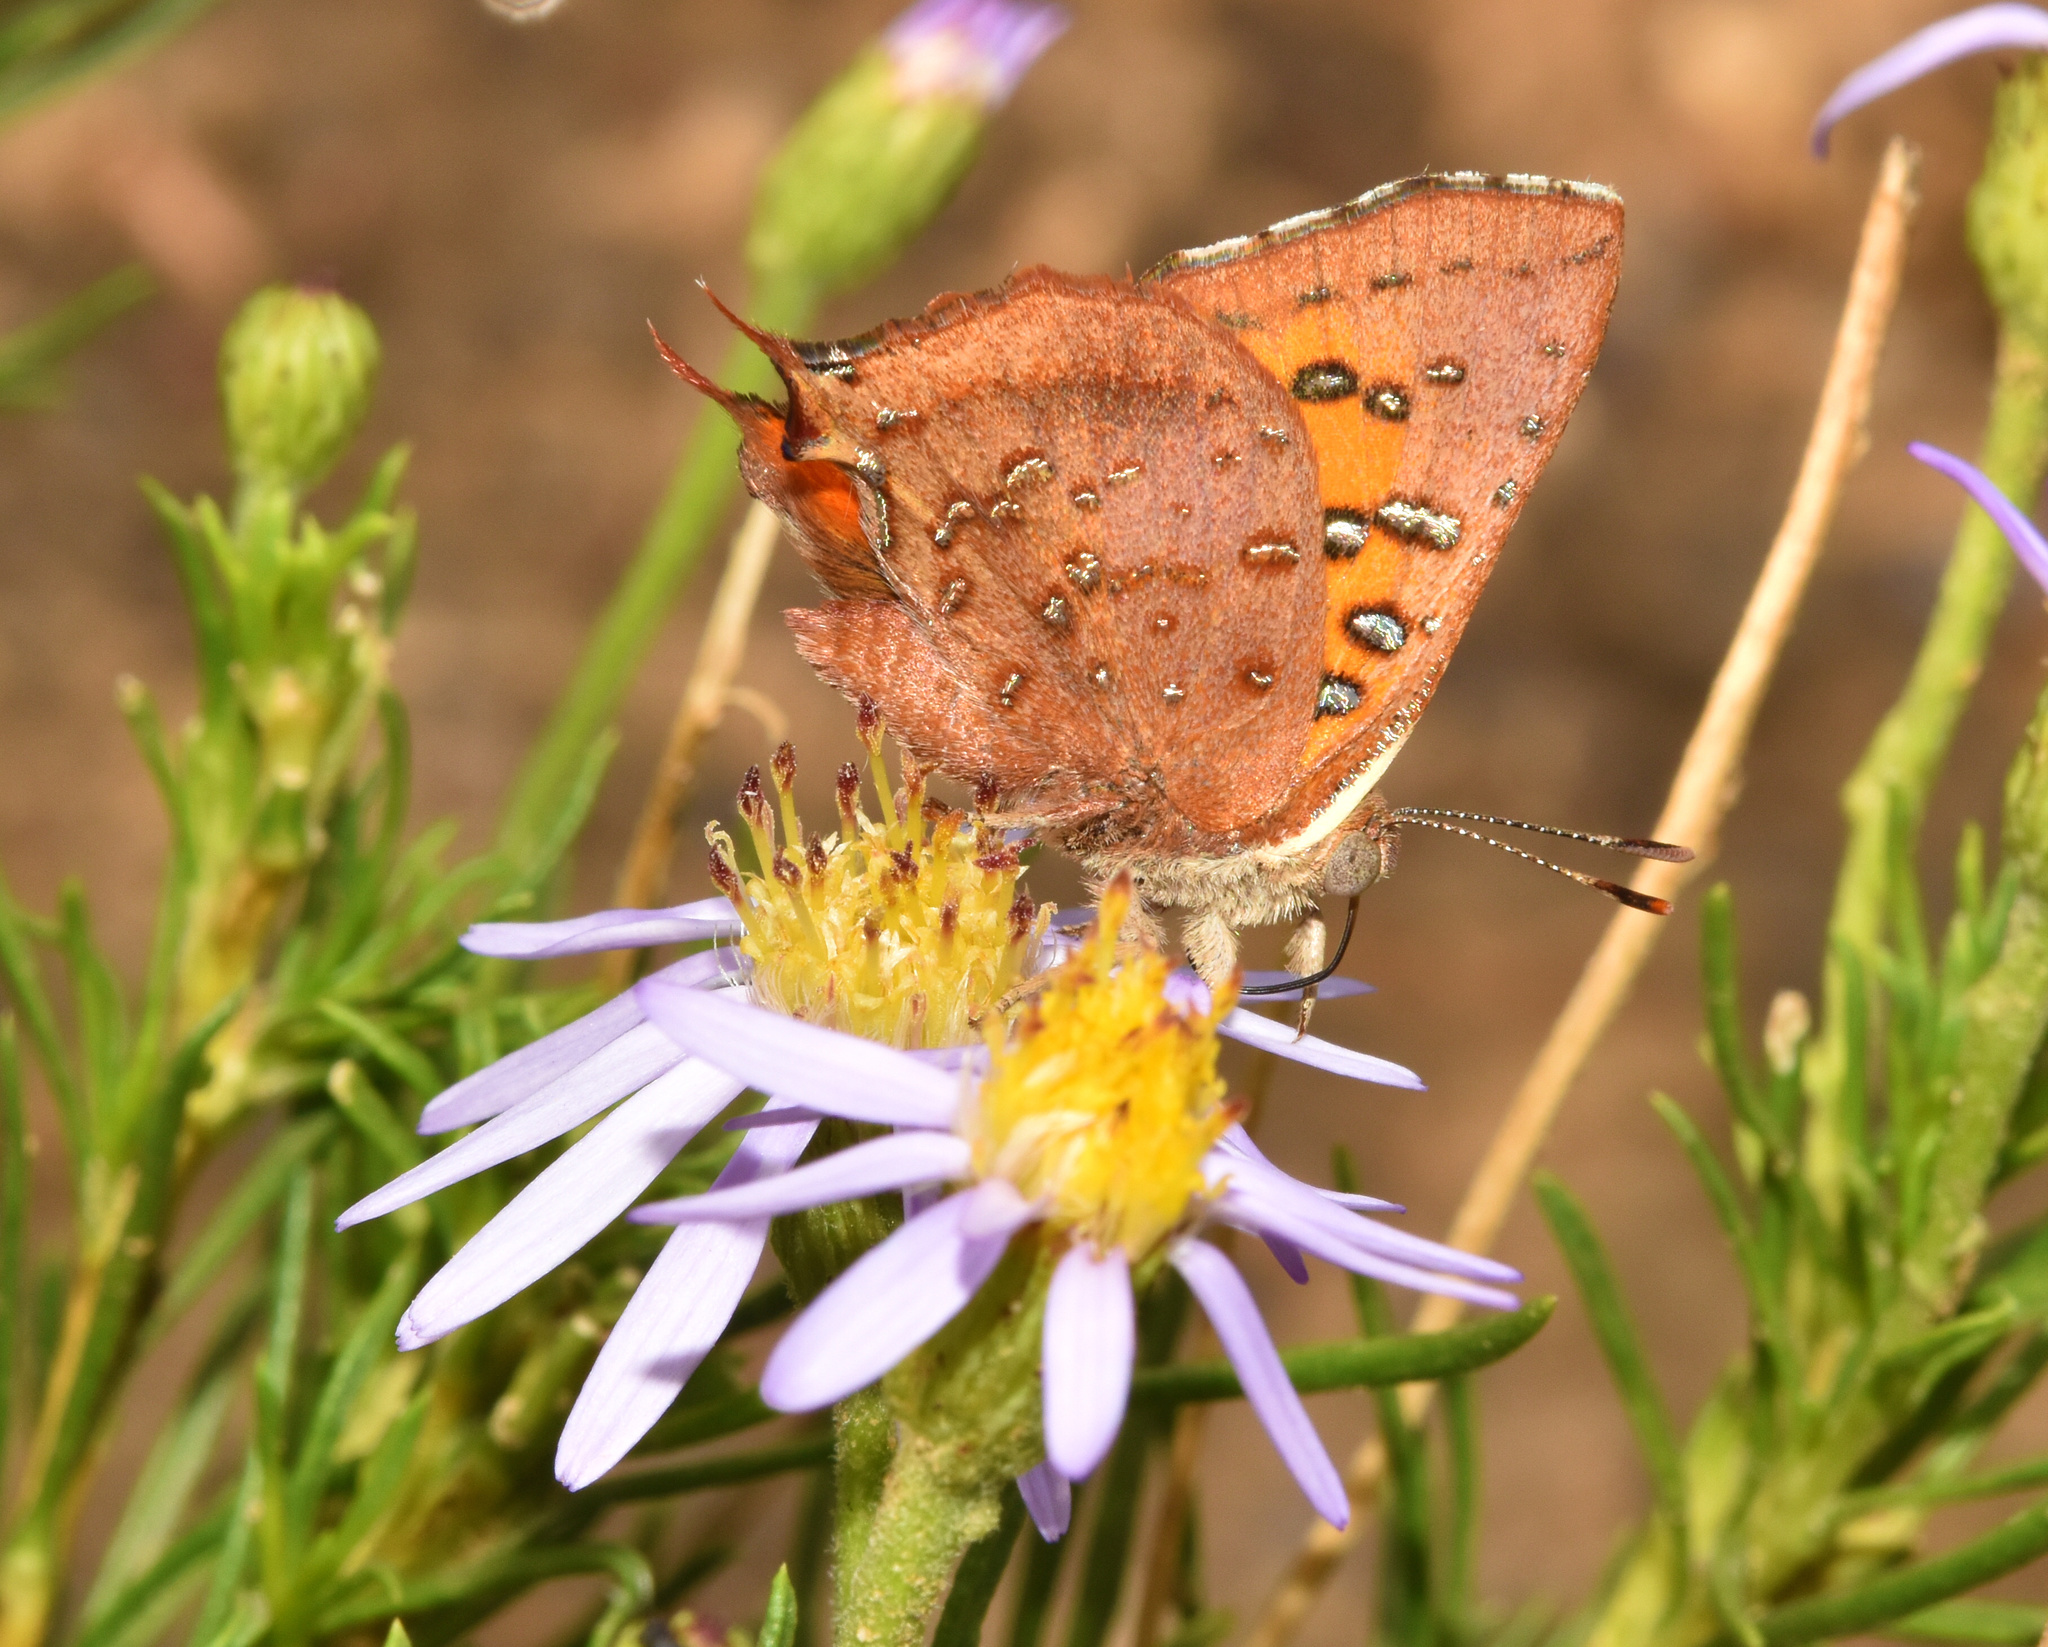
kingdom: Animalia
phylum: Arthropoda
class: Insecta
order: Lepidoptera
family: Lycaenidae
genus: Axiocerses
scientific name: Axiocerses perion
